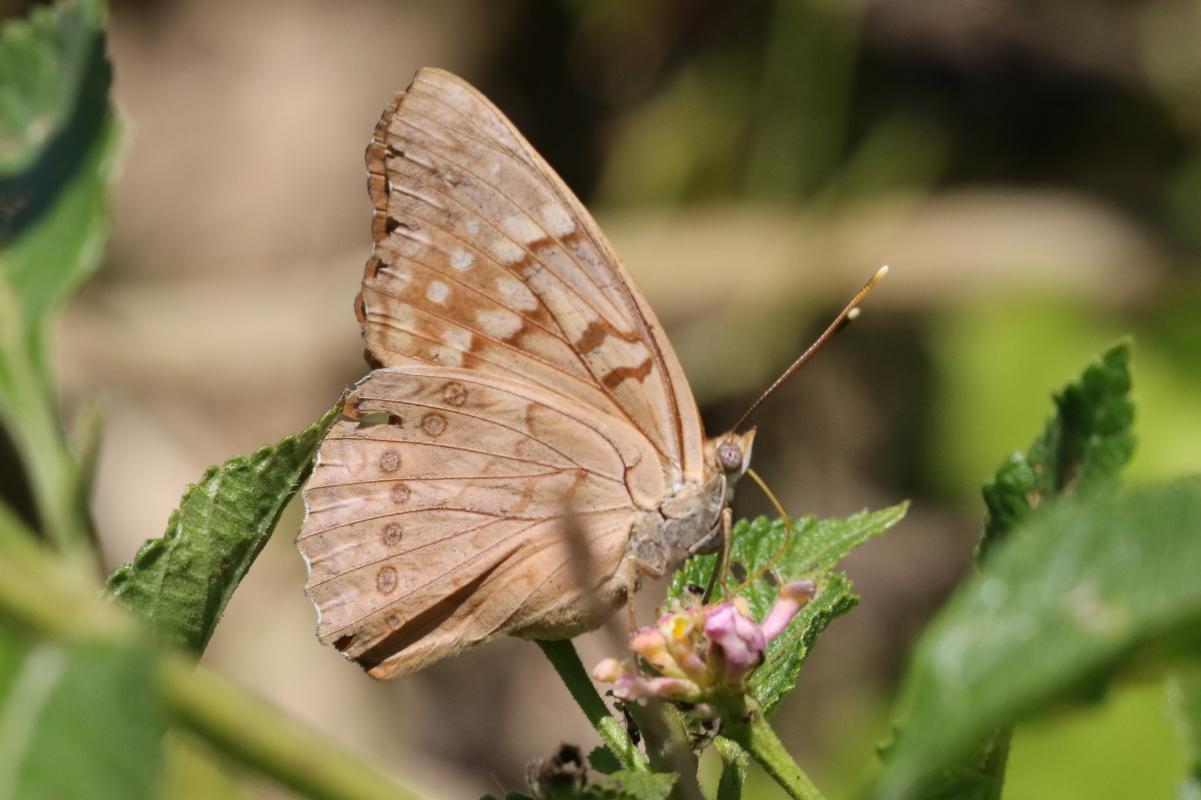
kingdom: Animalia
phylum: Arthropoda
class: Insecta
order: Lepidoptera
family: Nymphalidae
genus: Asterocampa
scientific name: Asterocampa clyton
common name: Tawny emperor
